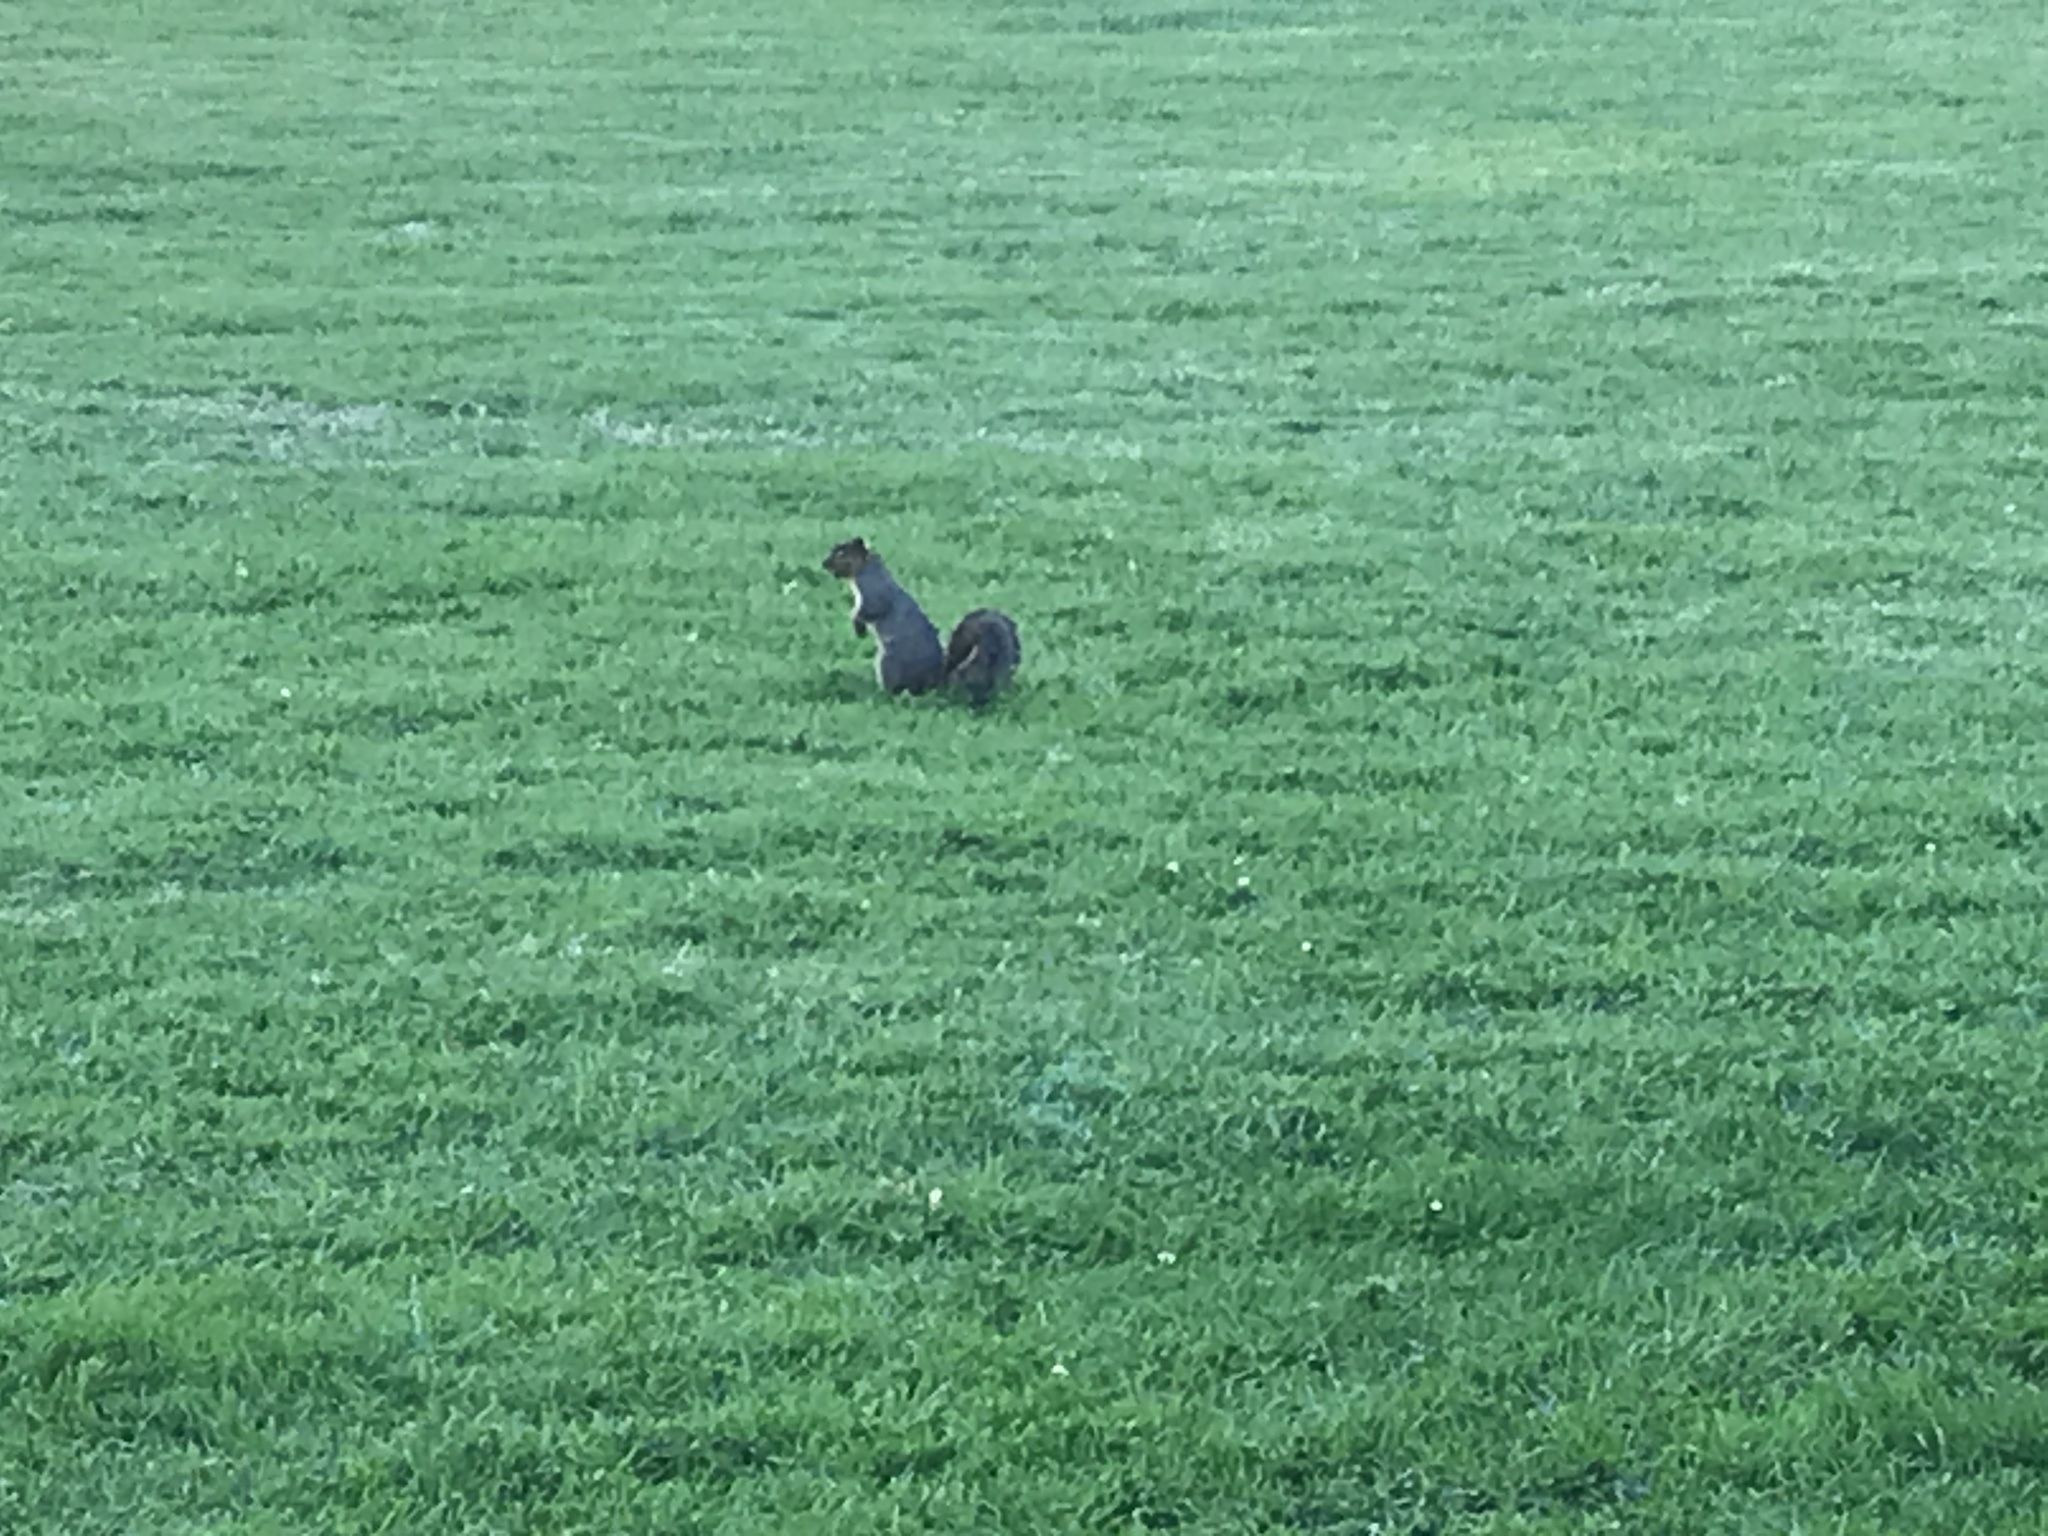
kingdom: Animalia
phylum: Chordata
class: Mammalia
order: Rodentia
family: Sciuridae
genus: Sciurus
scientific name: Sciurus niger
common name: Fox squirrel
